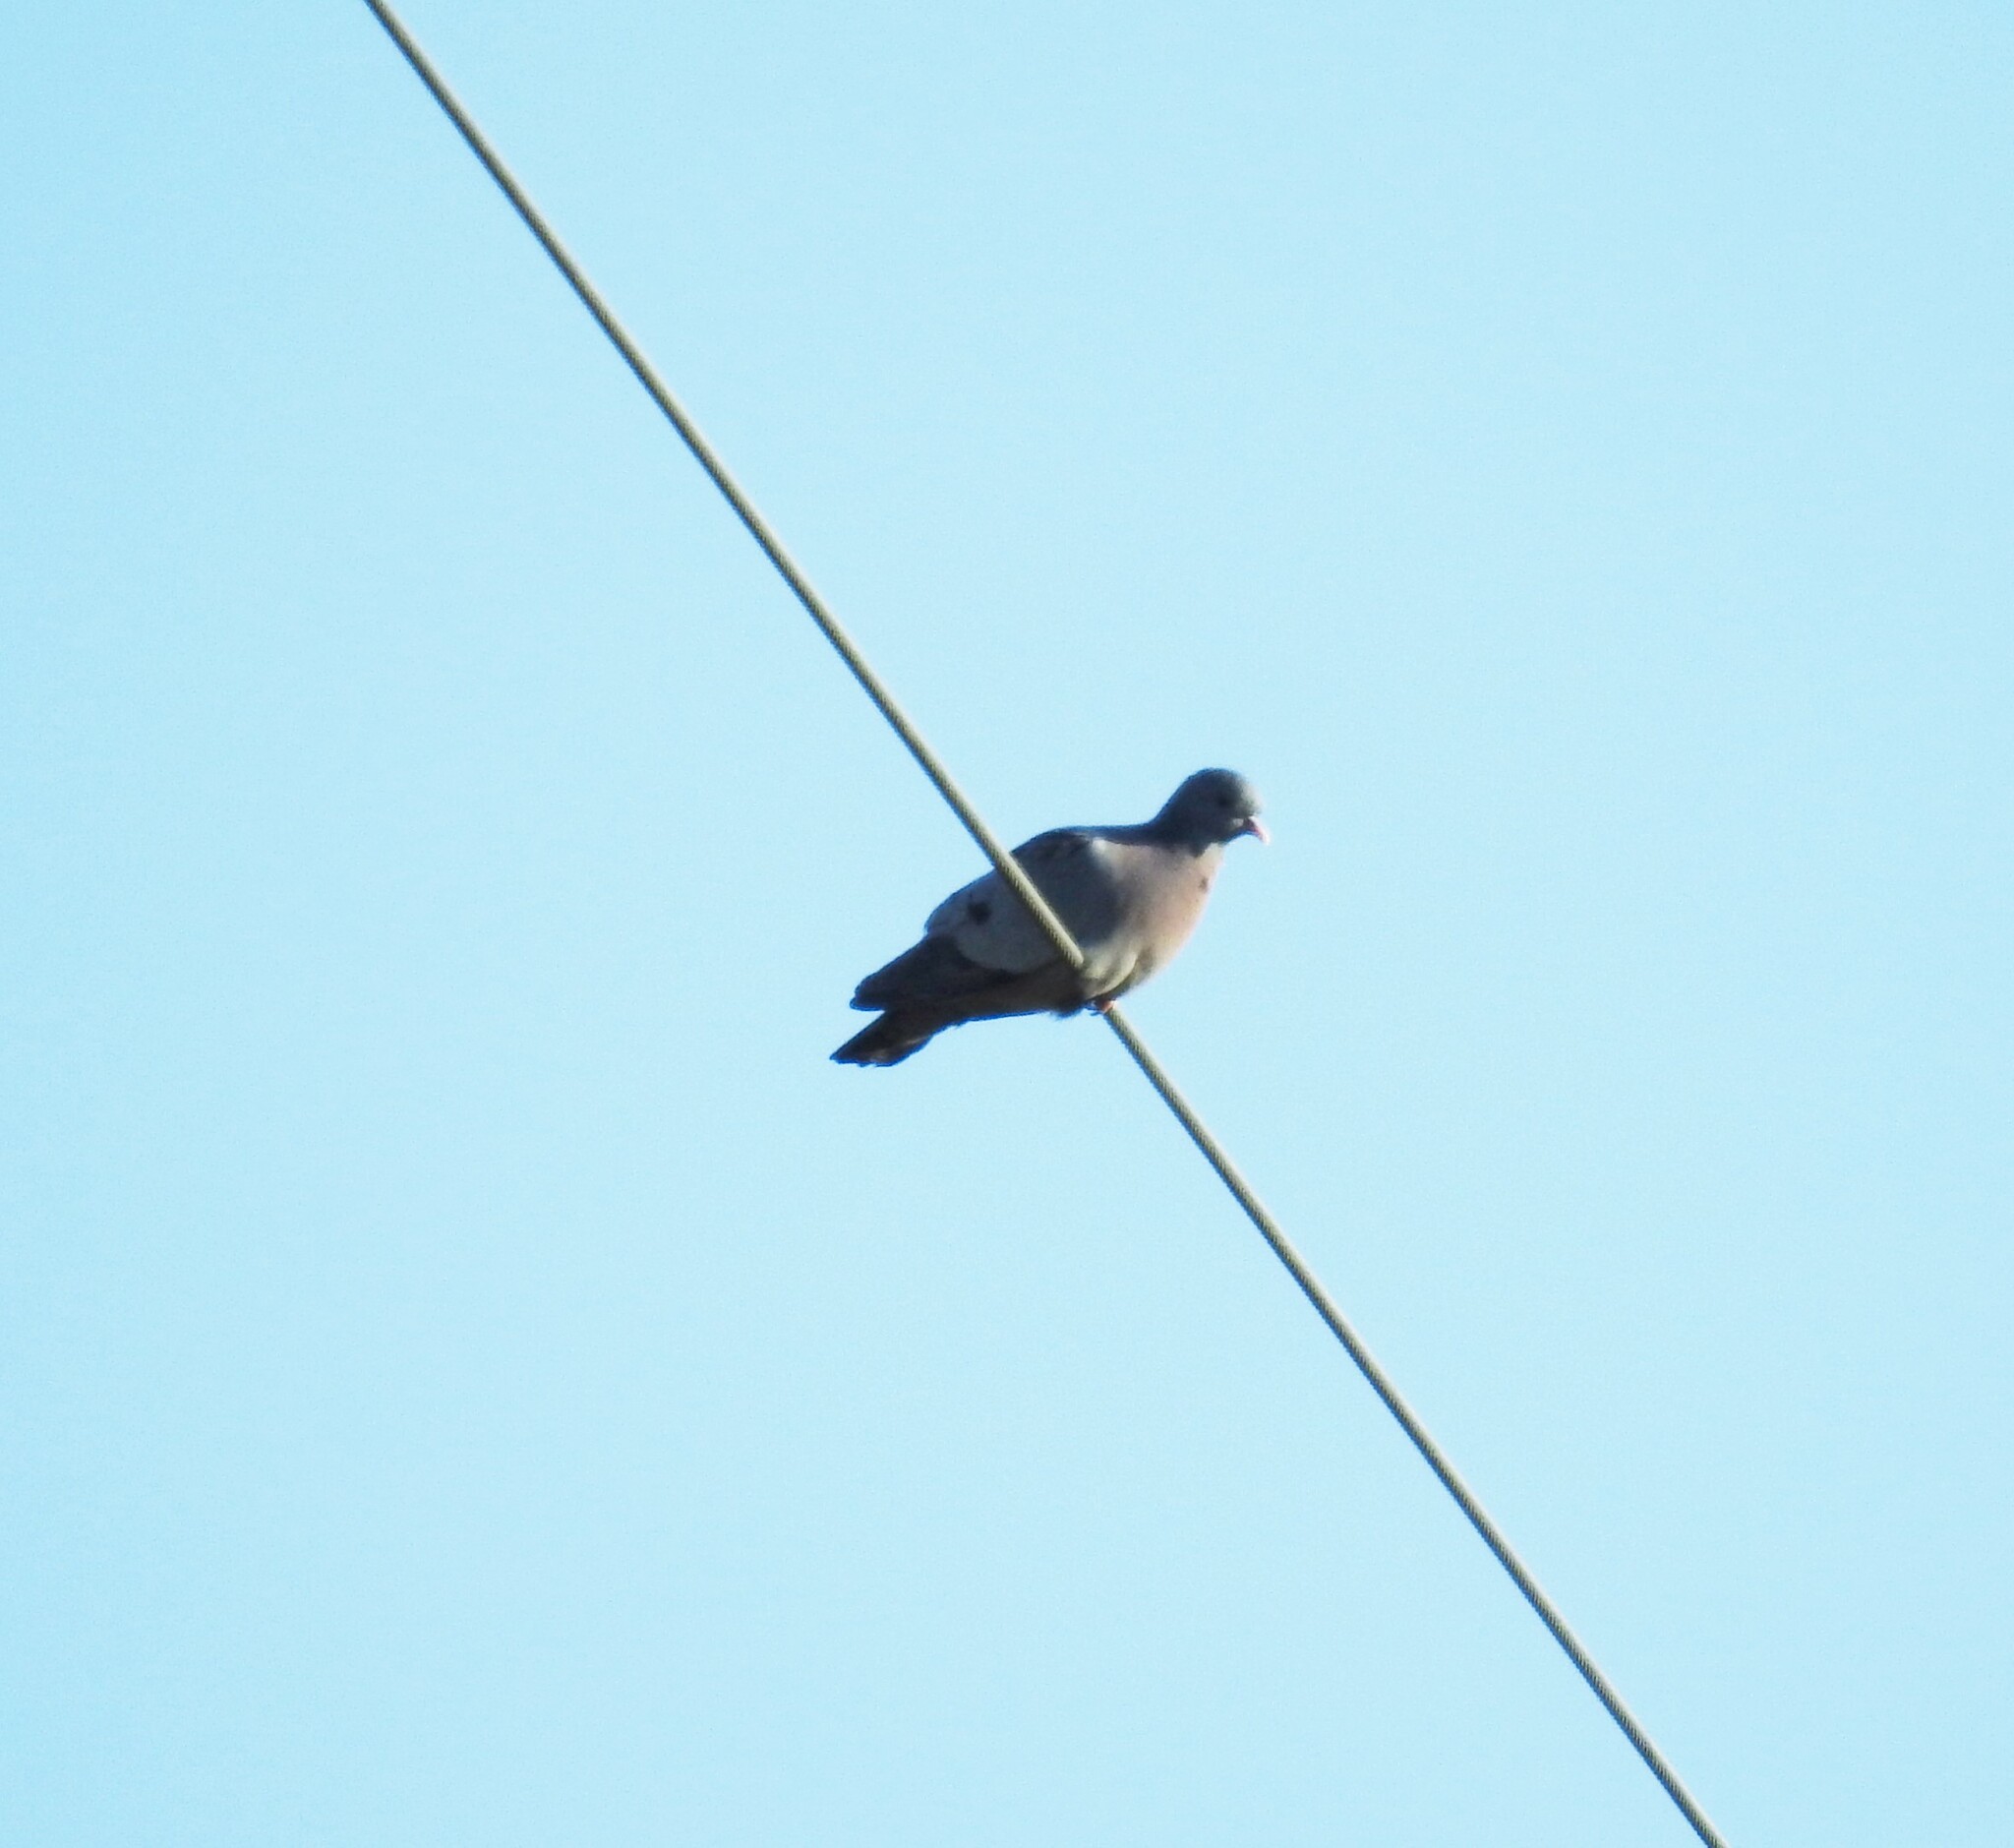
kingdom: Animalia
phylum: Chordata
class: Aves
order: Columbiformes
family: Columbidae
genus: Columba
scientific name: Columba oenas
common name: Stock dove
